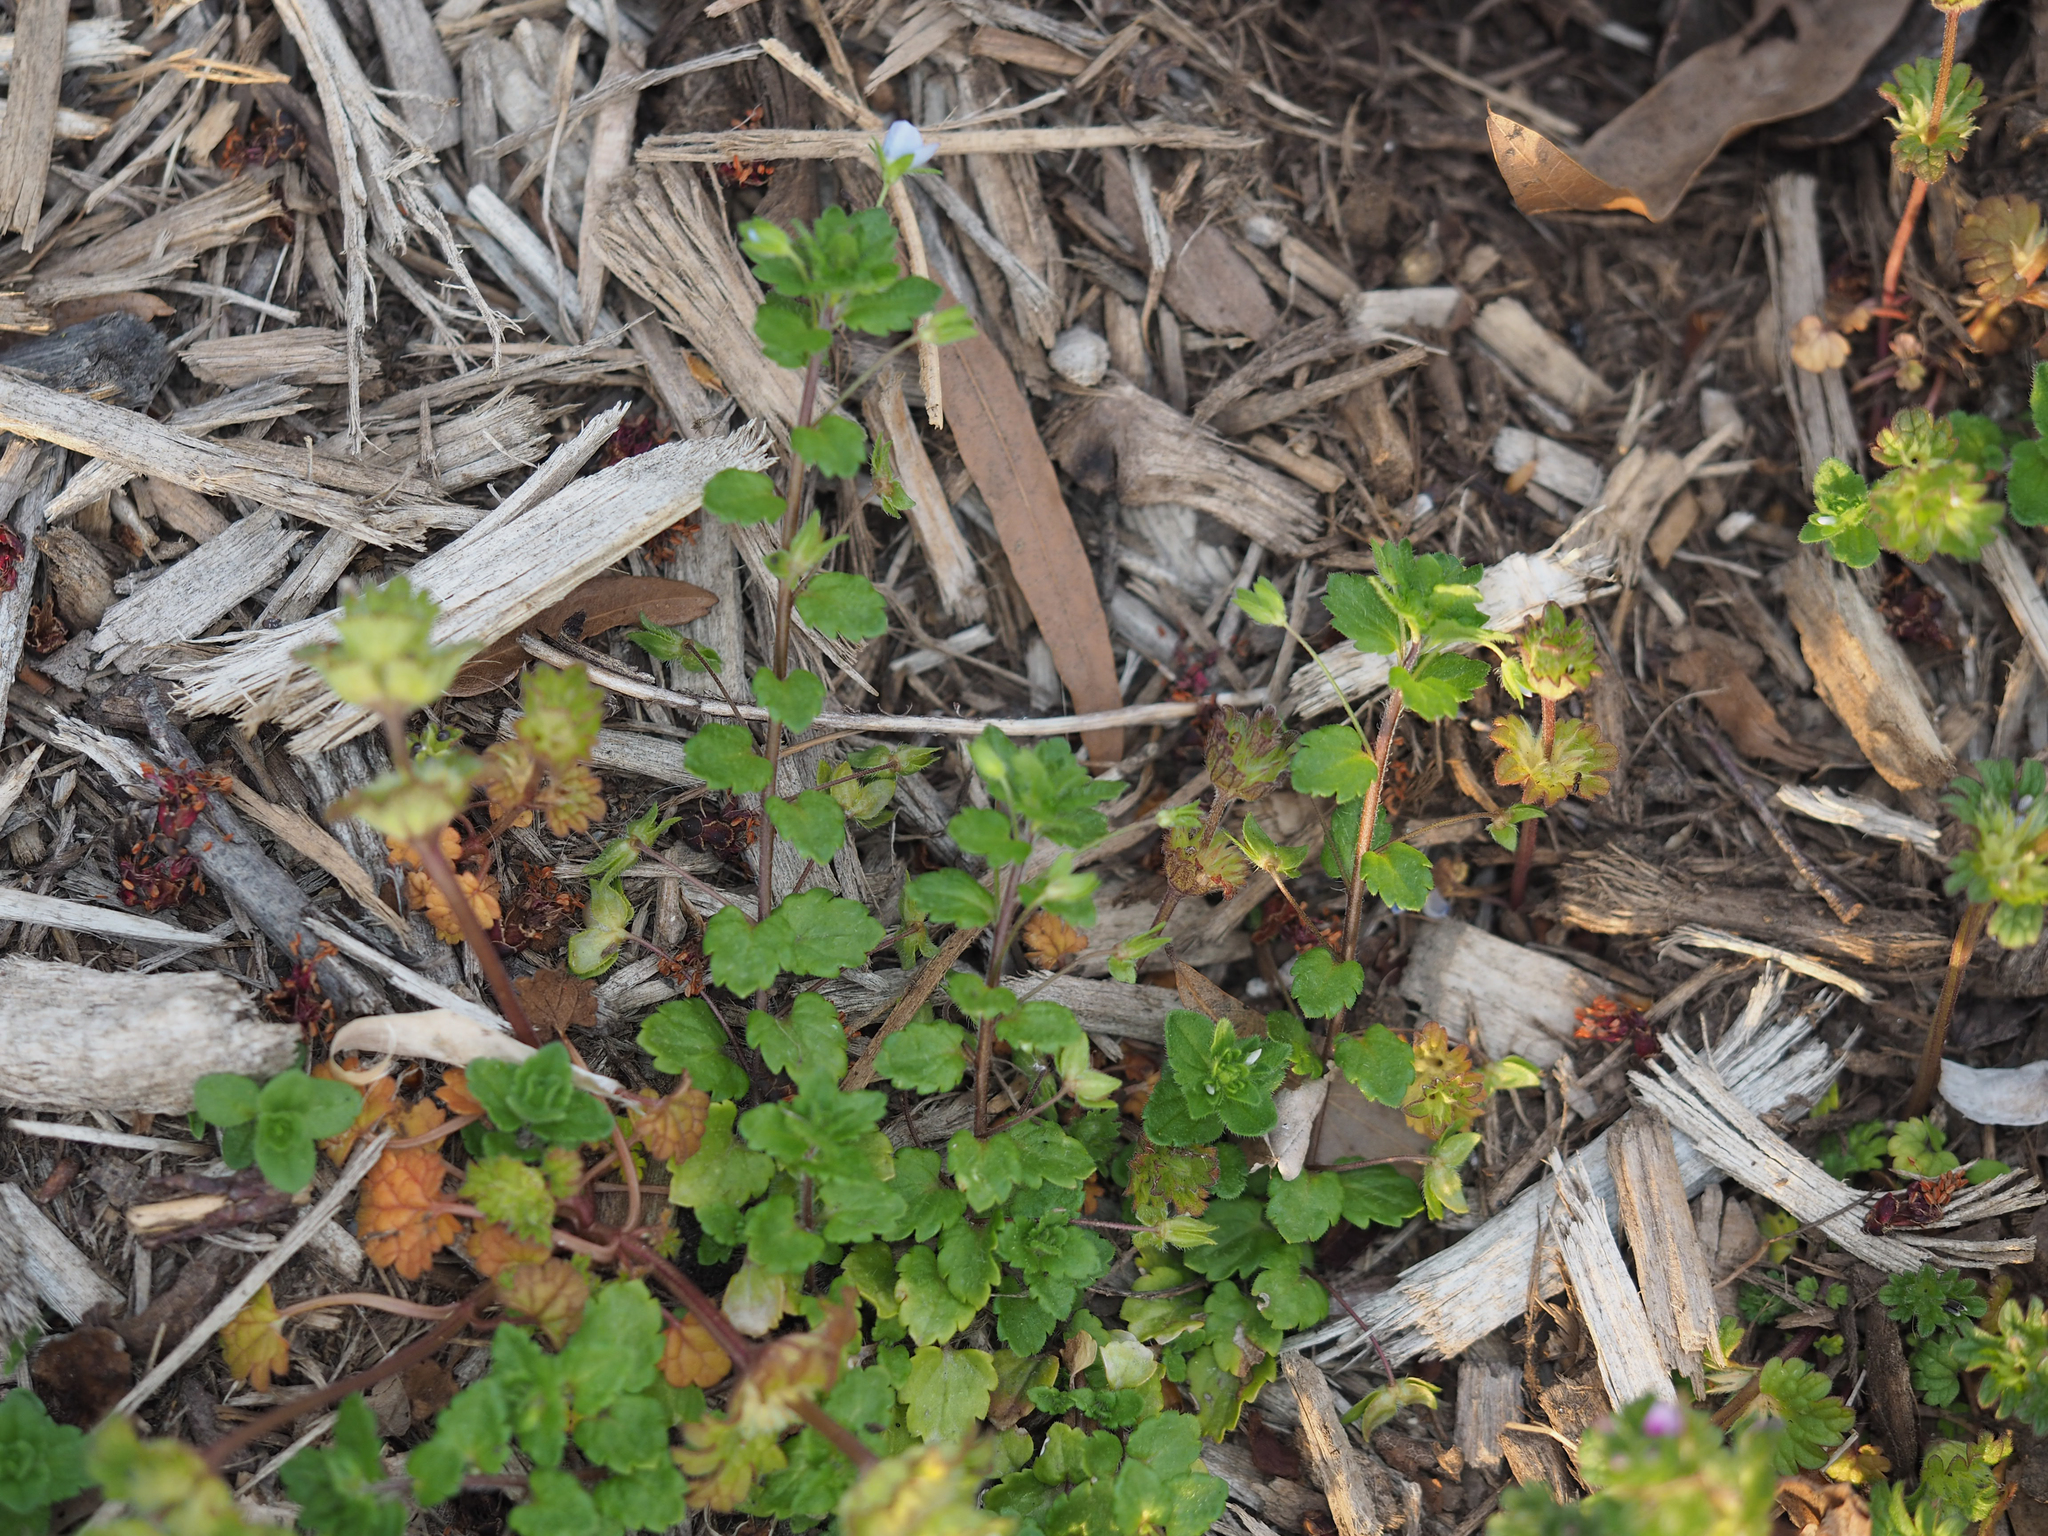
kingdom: Plantae
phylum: Tracheophyta
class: Magnoliopsida
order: Lamiales
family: Plantaginaceae
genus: Veronica
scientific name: Veronica persica
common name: Common field-speedwell
